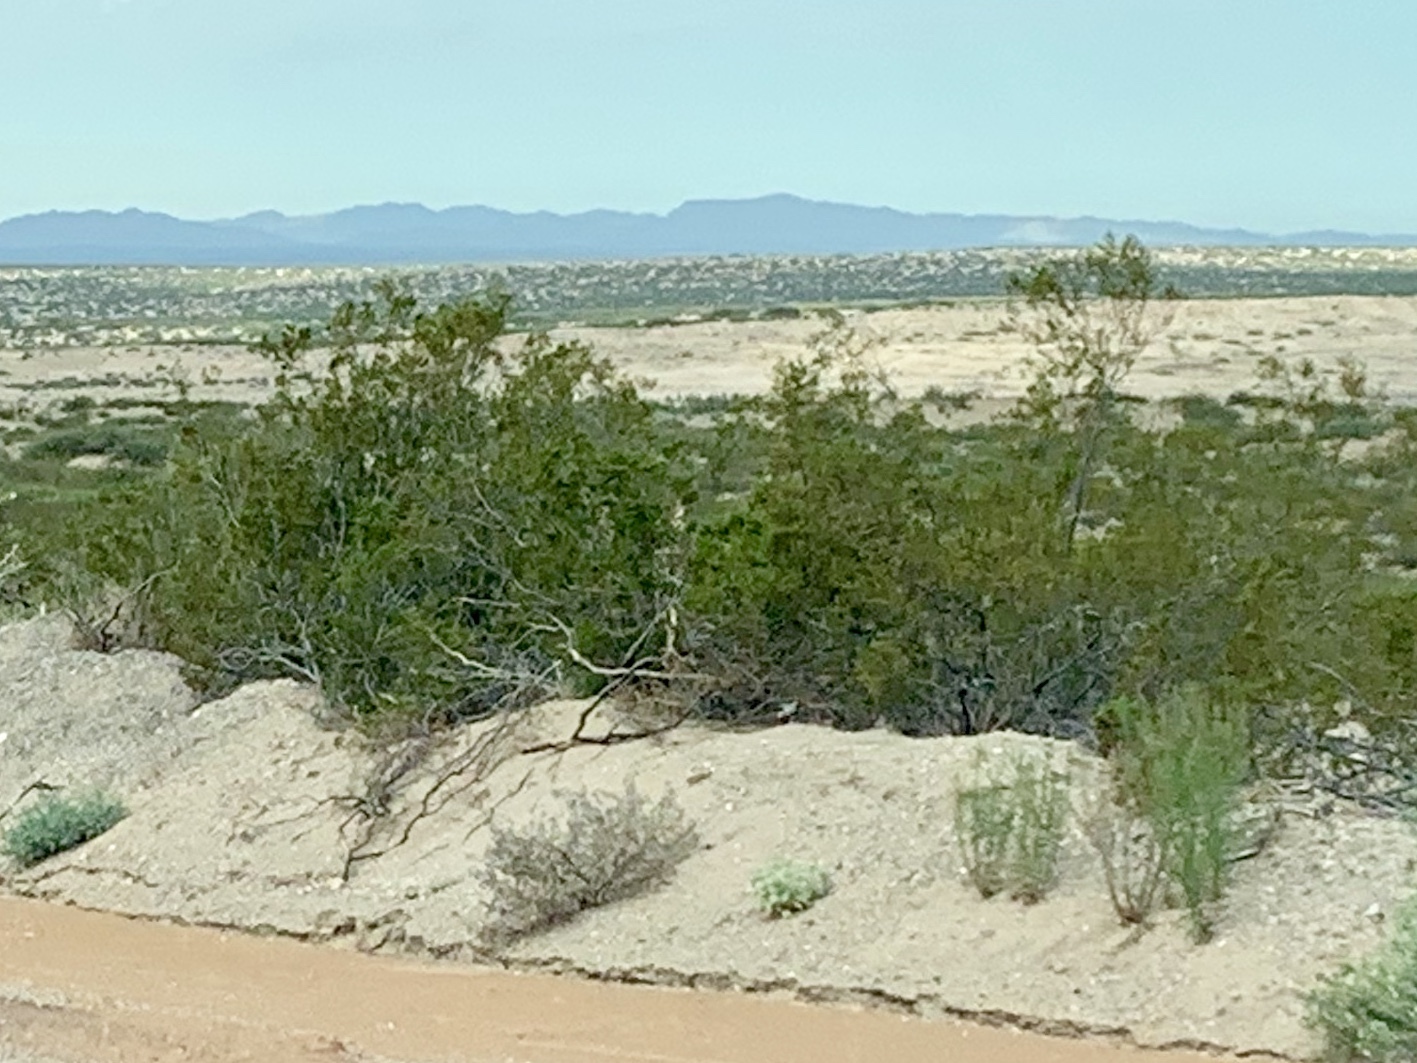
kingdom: Plantae
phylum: Tracheophyta
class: Magnoliopsida
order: Zygophyllales
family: Zygophyllaceae
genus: Larrea
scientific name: Larrea tridentata
